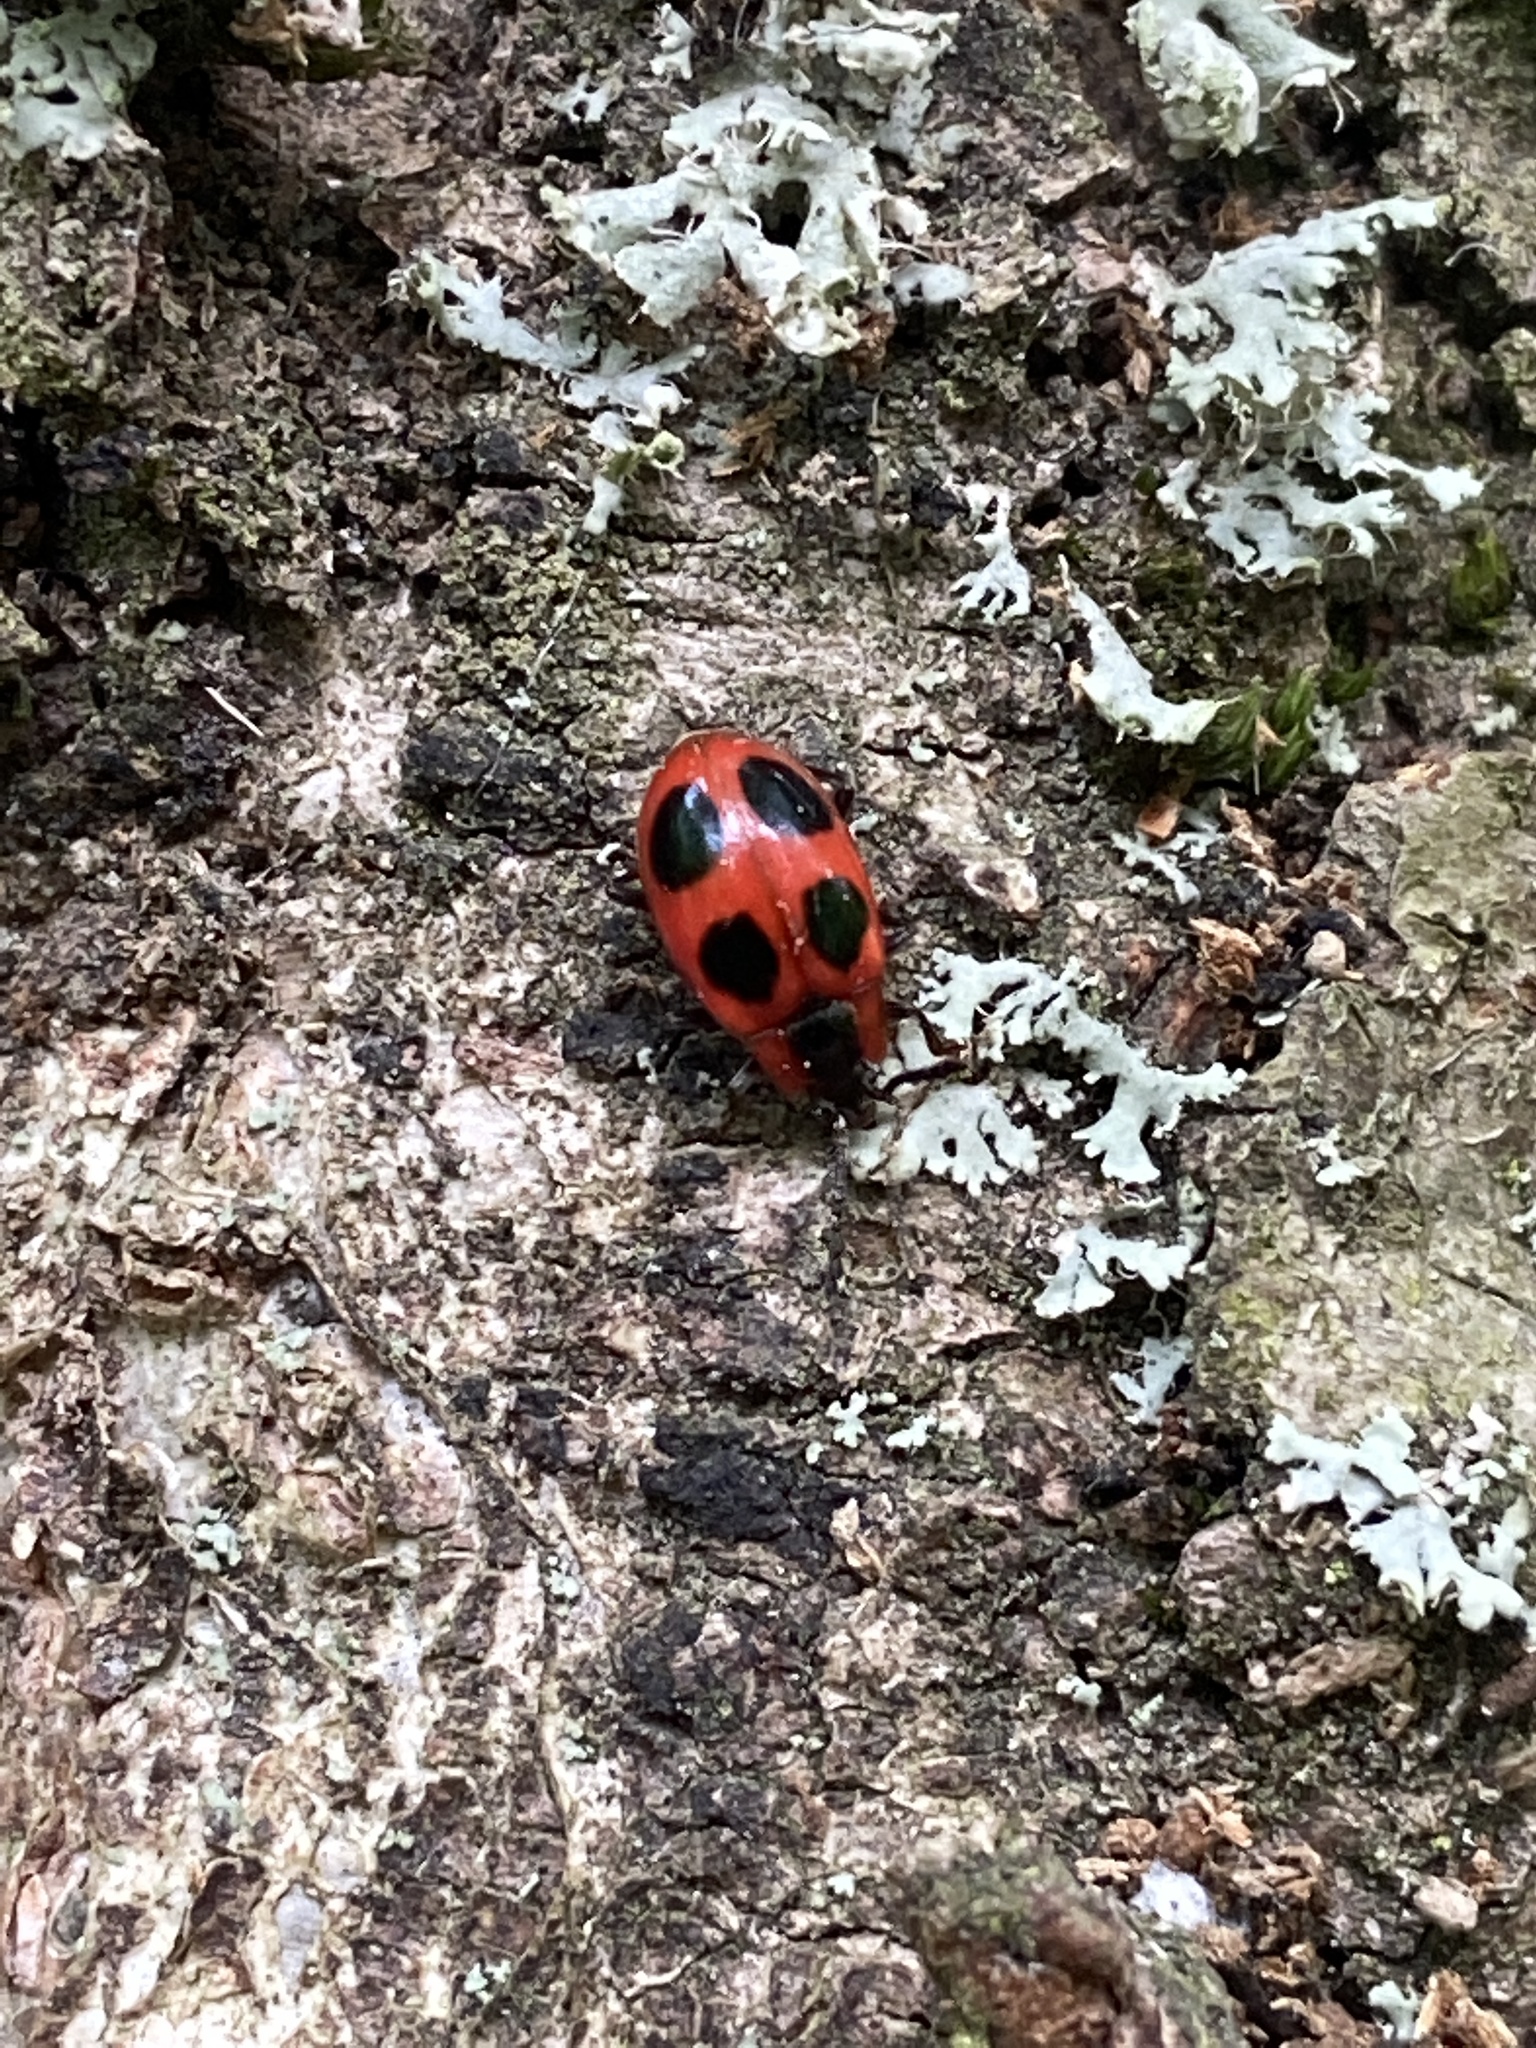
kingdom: Animalia
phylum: Arthropoda
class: Insecta
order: Coleoptera
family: Endomychidae
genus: Endomychus
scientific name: Endomychus coccineus
